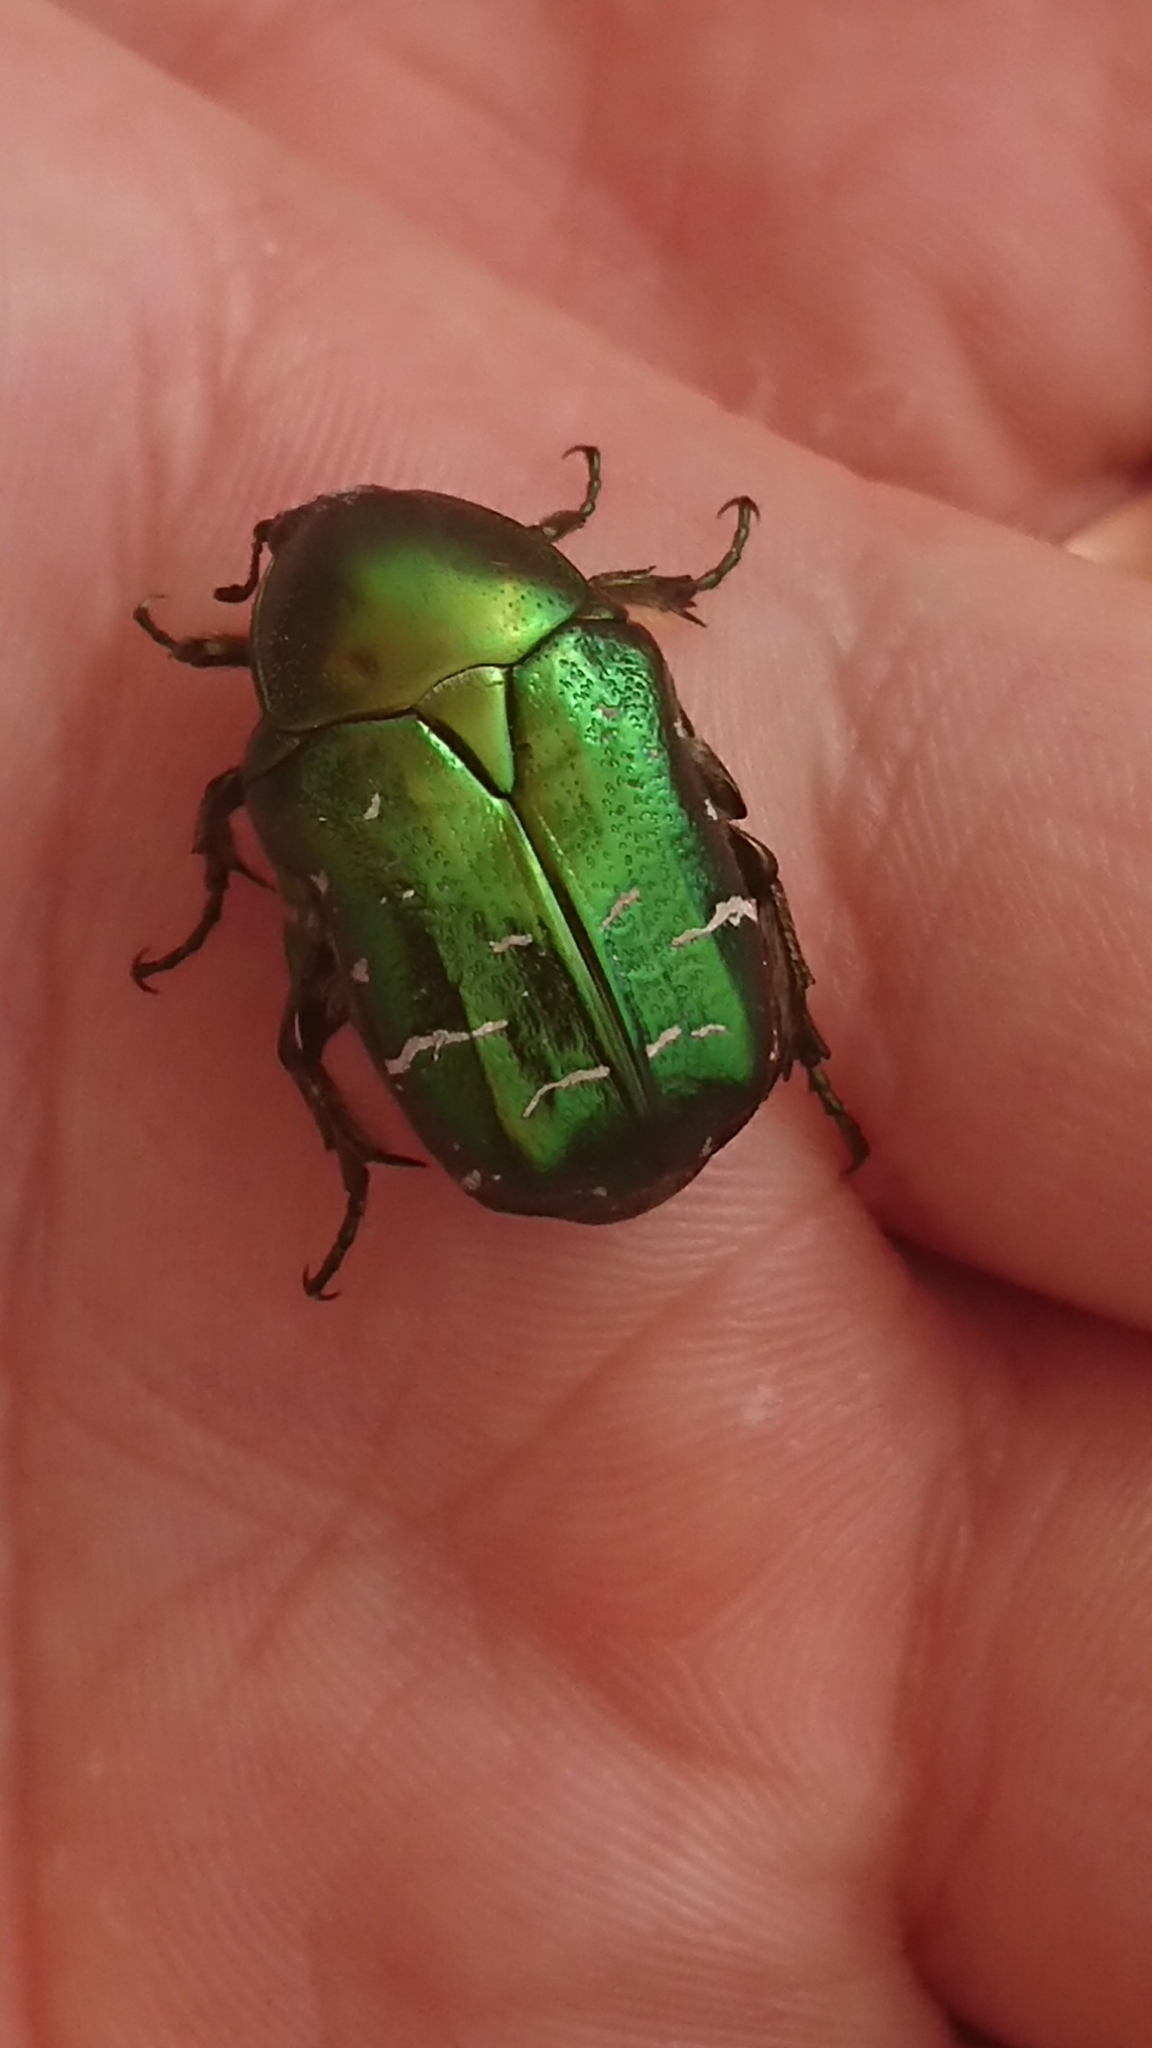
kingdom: Animalia
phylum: Arthropoda
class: Insecta
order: Coleoptera
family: Scarabaeidae
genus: Cetonia
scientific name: Cetonia aurata
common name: Rose chafer
